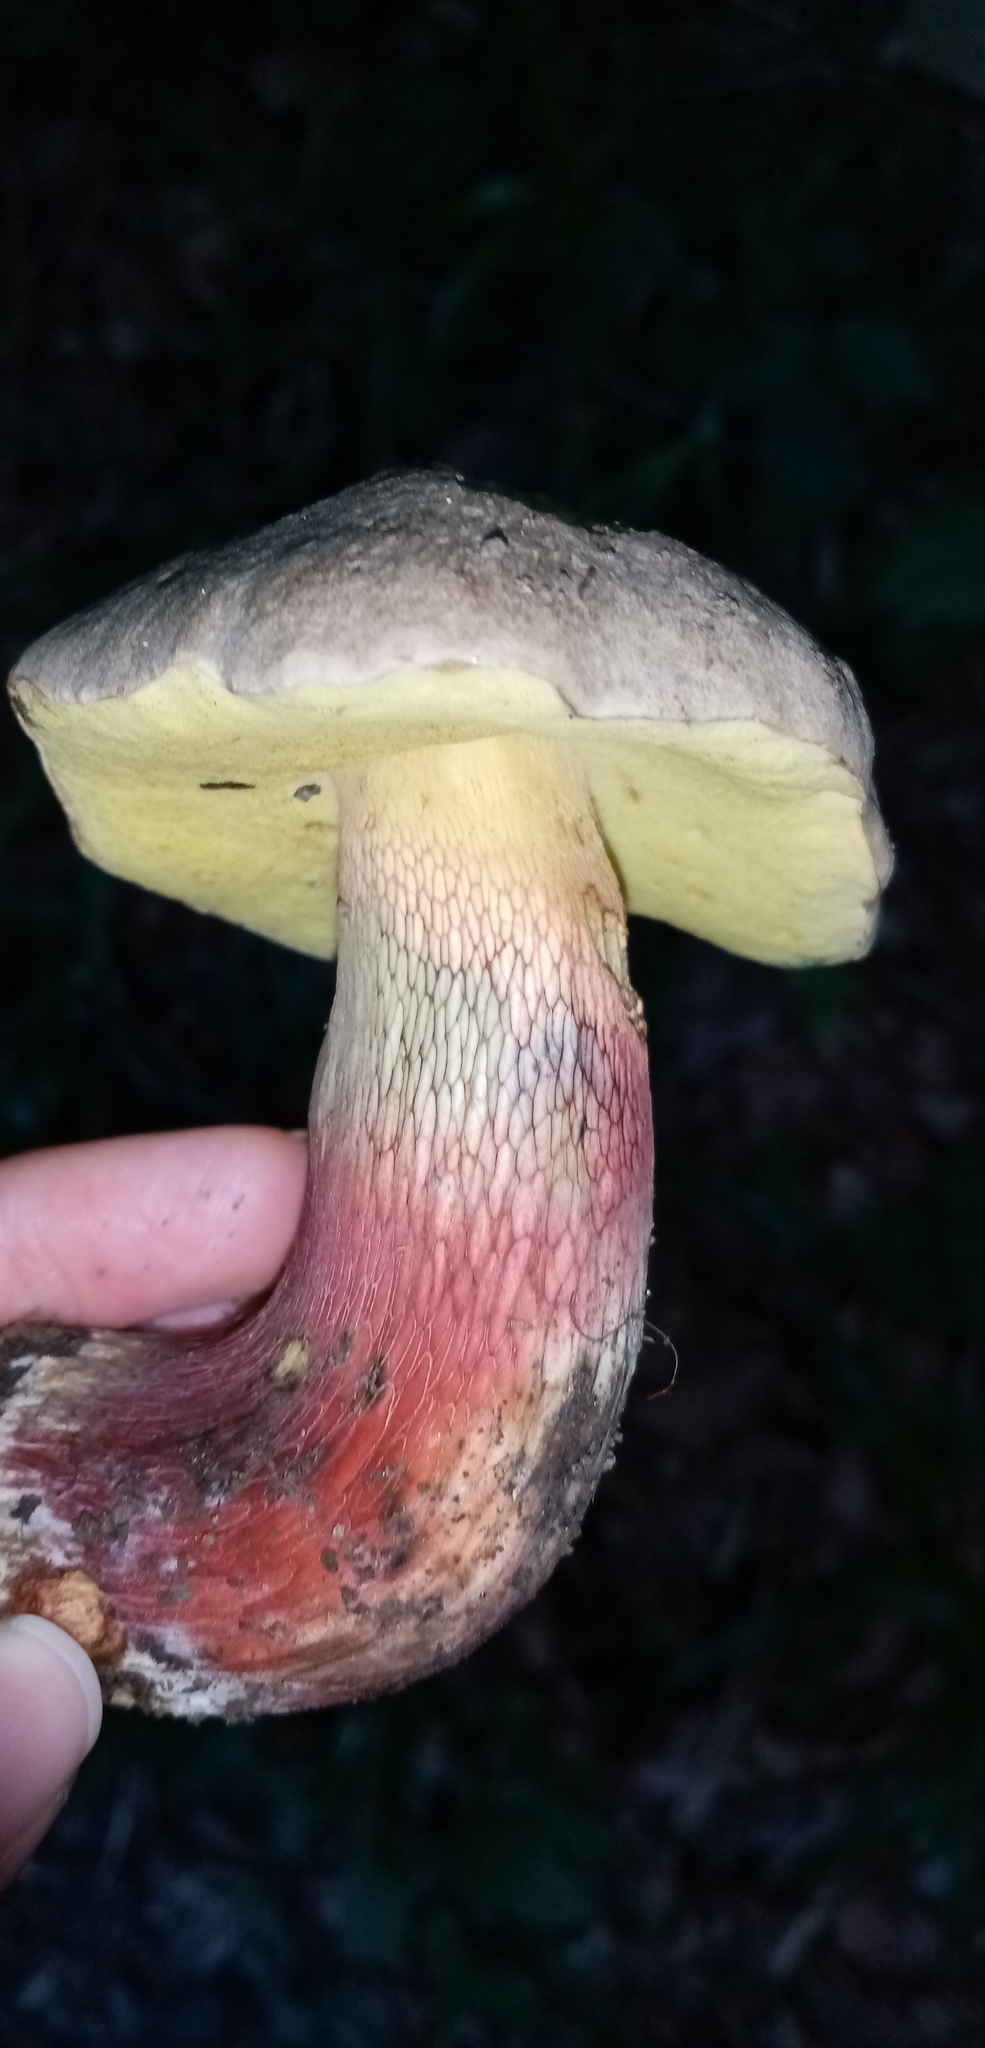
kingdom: Fungi
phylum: Basidiomycota
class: Agaricomycetes
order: Boletales
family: Boletaceae
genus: Caloboletus
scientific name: Caloboletus calopus
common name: Bitter beech bolete
